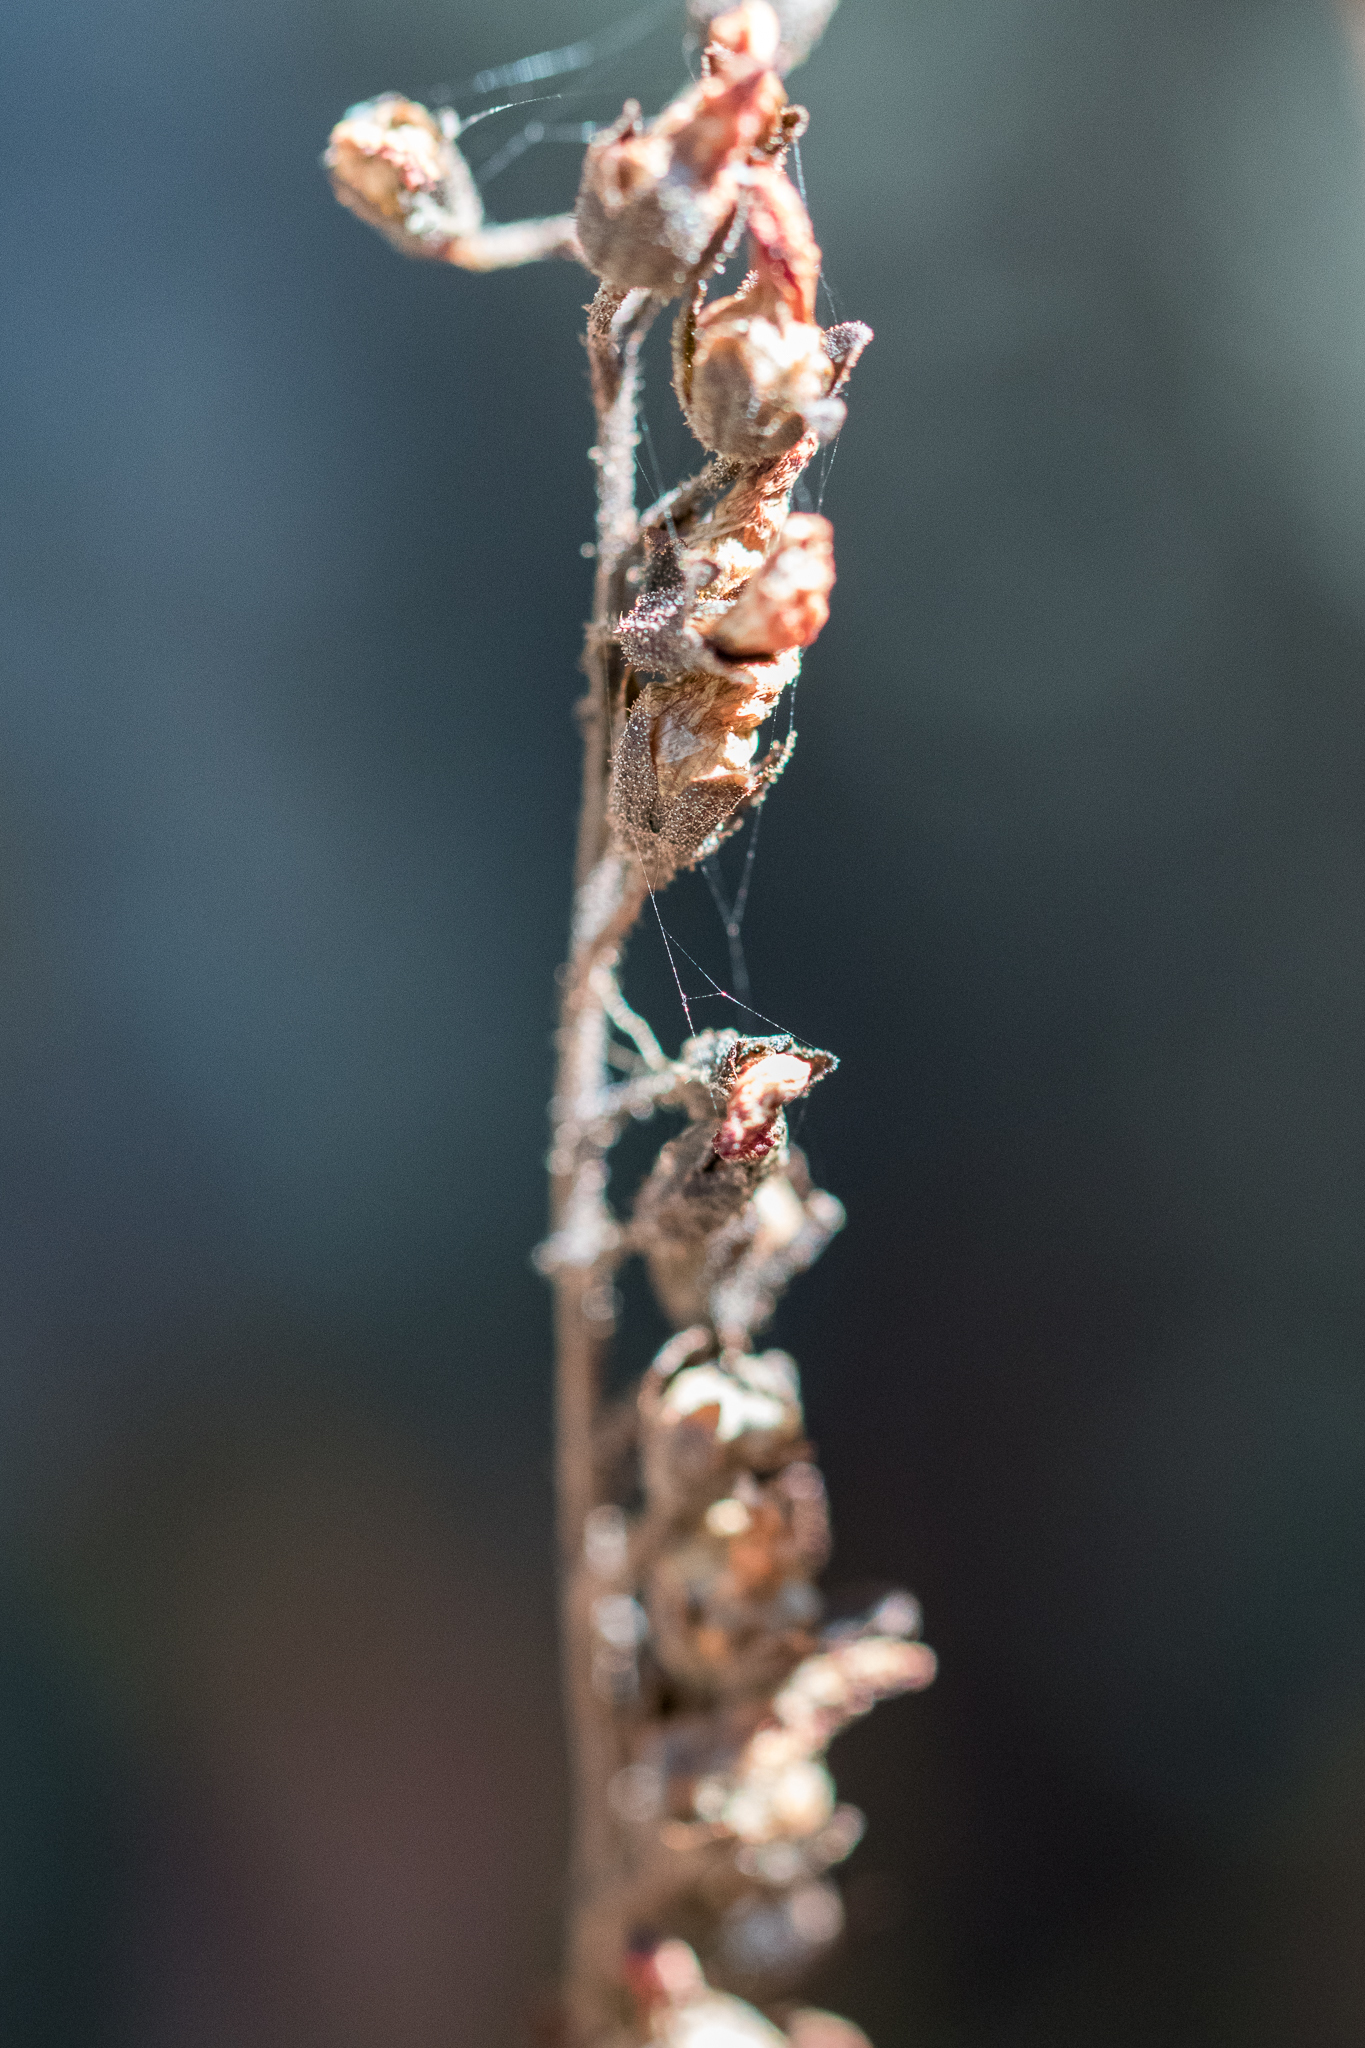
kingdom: Plantae
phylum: Tracheophyta
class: Magnoliopsida
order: Caryophyllales
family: Droseraceae
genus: Drosera
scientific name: Drosera capensis
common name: Cape sundew
